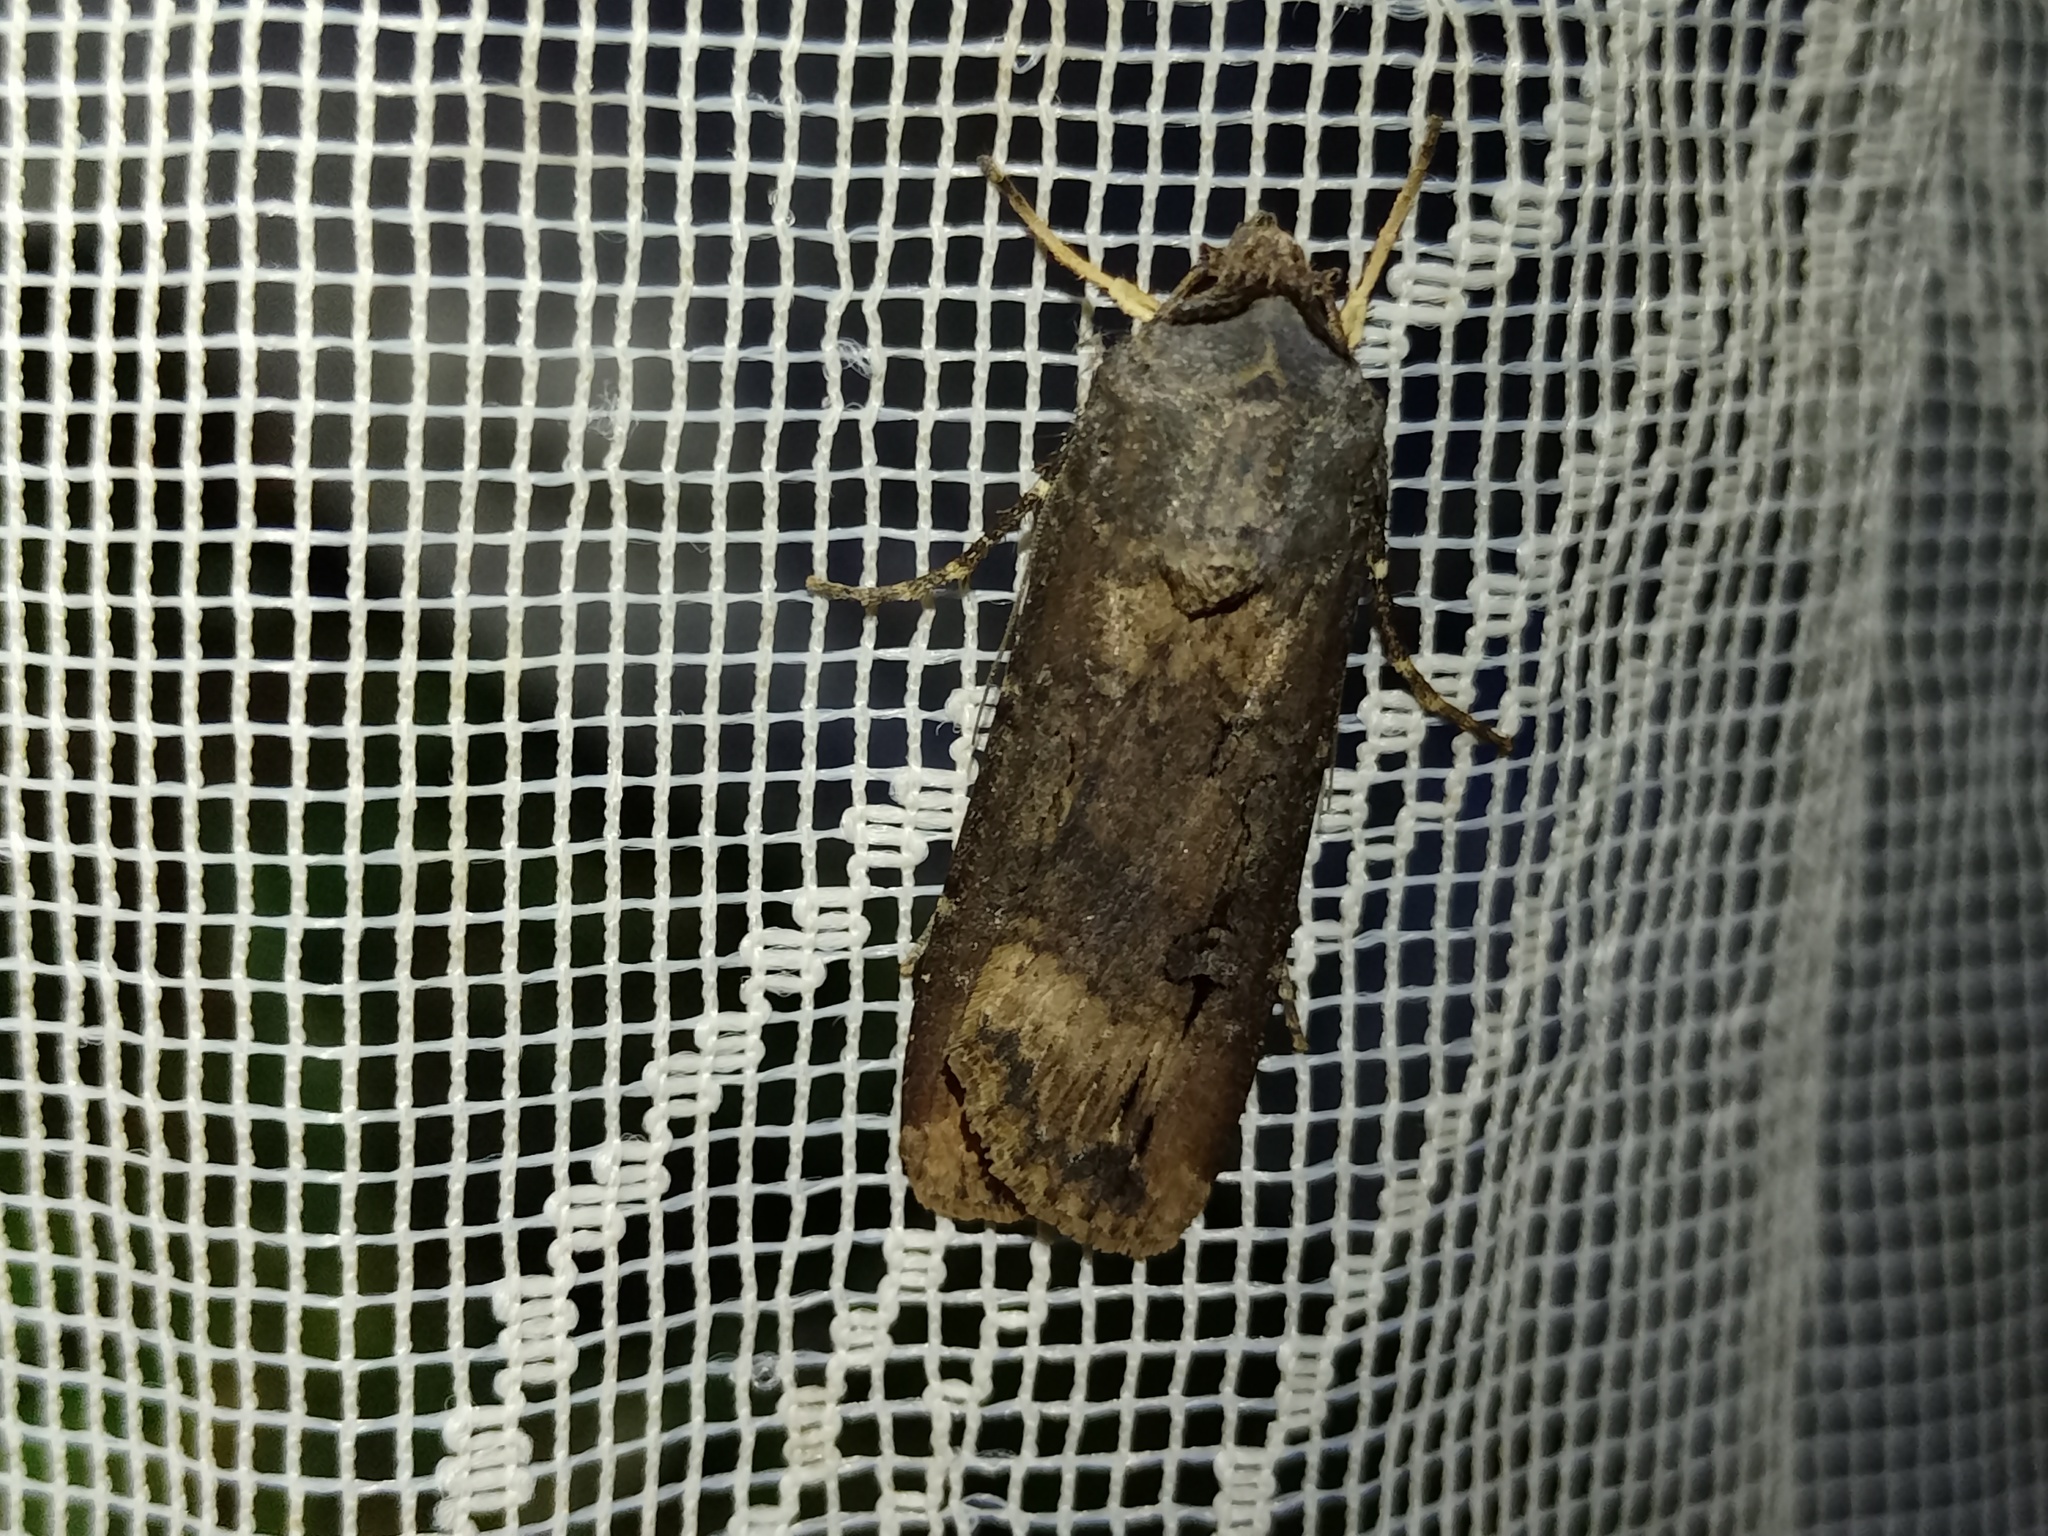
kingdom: Animalia
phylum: Arthropoda
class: Insecta
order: Lepidoptera
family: Noctuidae
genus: Agrotis
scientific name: Agrotis ipsilon
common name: Dark sword-grass
